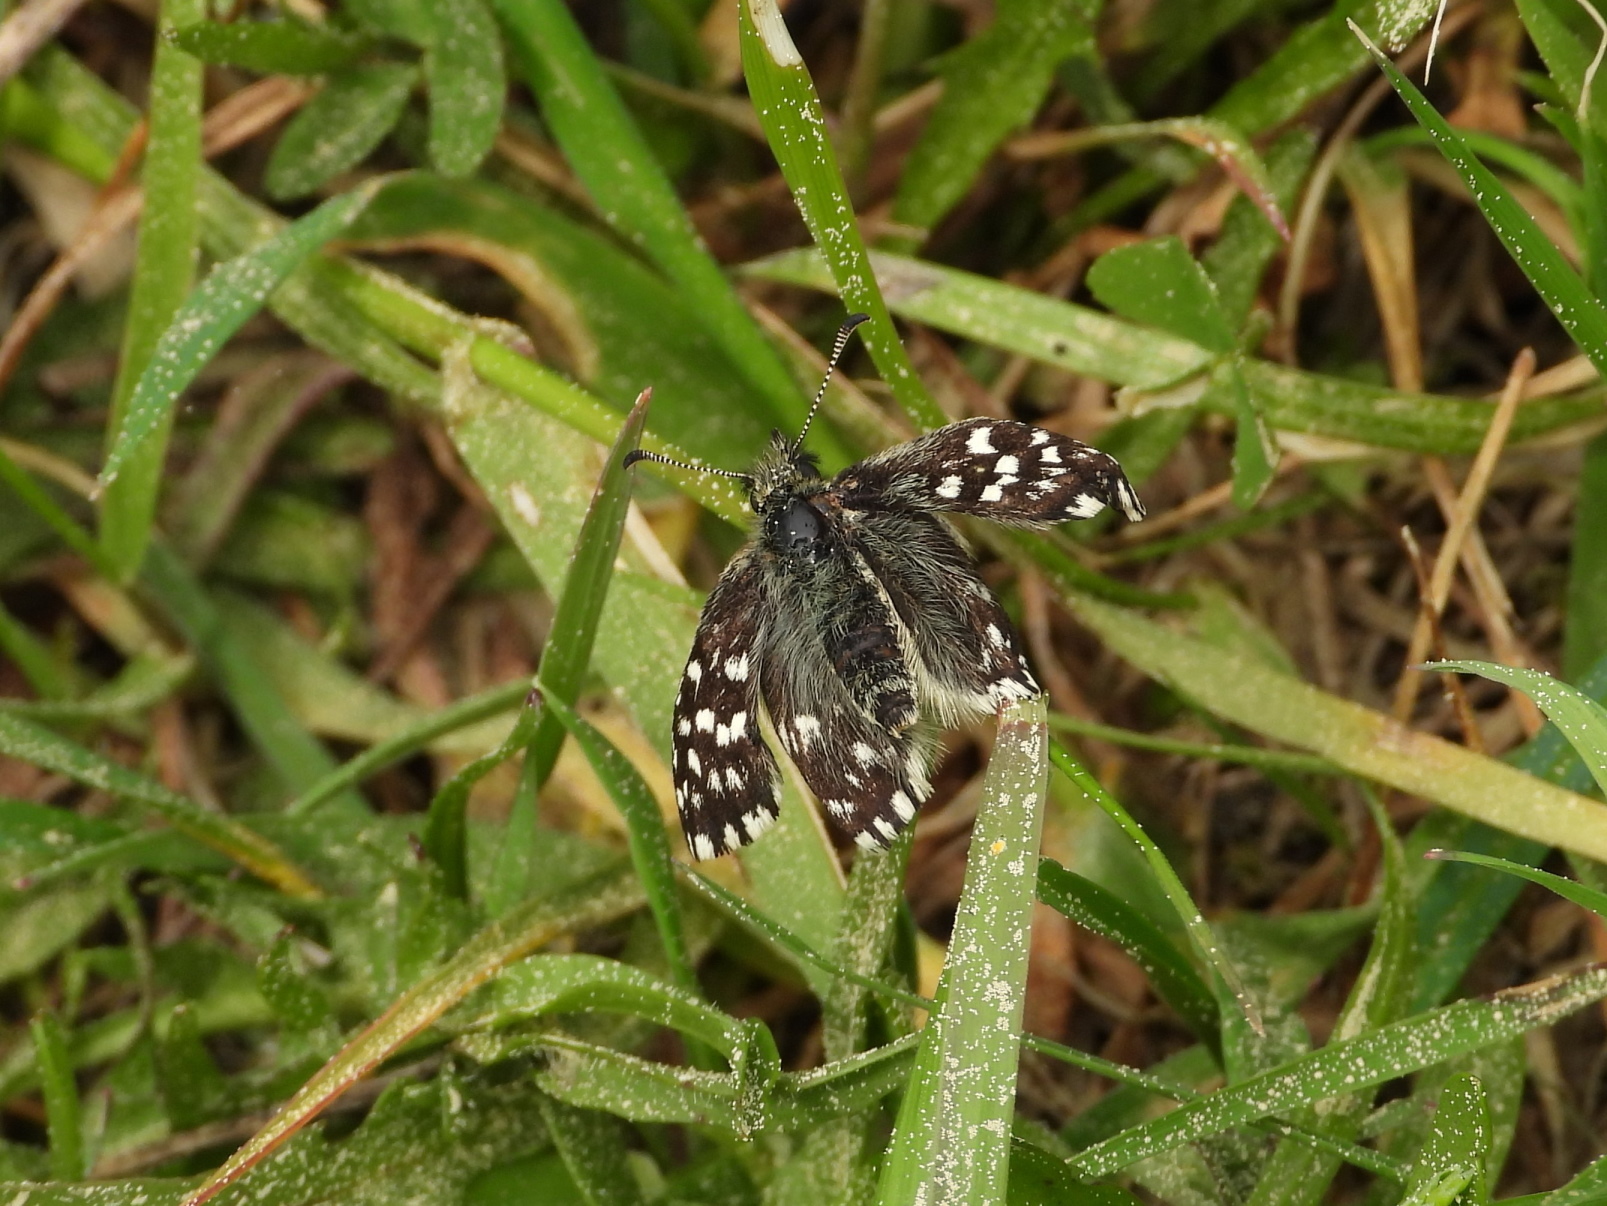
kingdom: Animalia
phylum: Arthropoda
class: Insecta
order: Lepidoptera
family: Hesperiidae
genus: Pyrgus
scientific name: Pyrgus malvae
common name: Grizzled skipper
